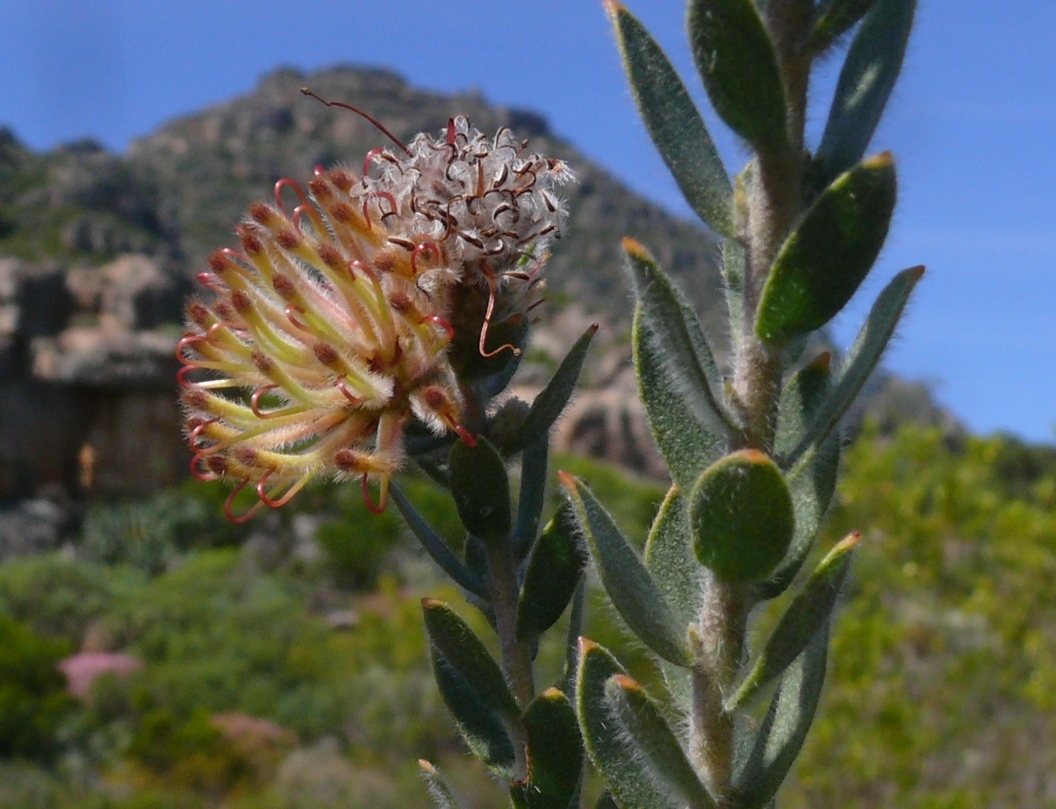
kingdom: Plantae
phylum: Tracheophyta
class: Magnoliopsida
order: Proteales
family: Proteaceae
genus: Leucospermum
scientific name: Leucospermum calligerum
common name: Arid pincushion
